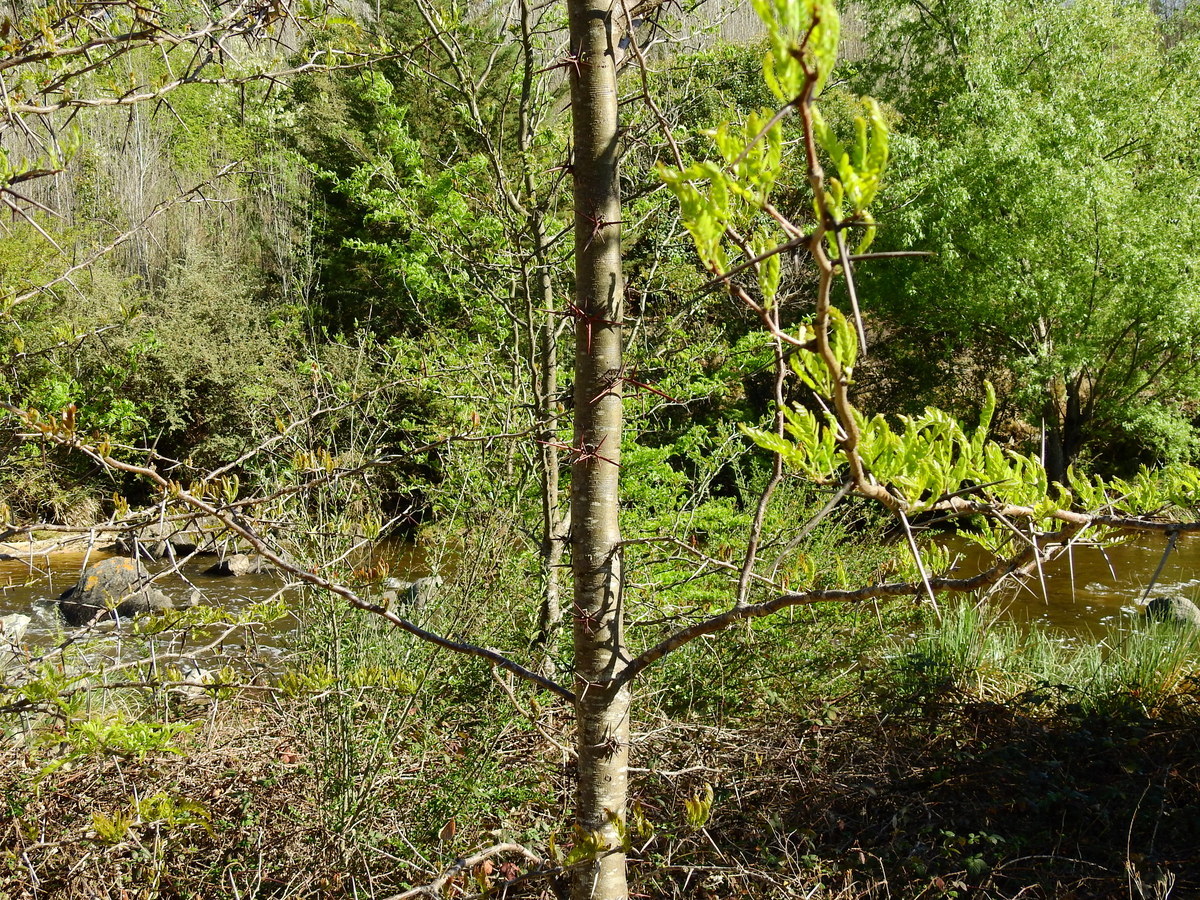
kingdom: Plantae
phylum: Tracheophyta
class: Magnoliopsida
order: Fabales
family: Fabaceae
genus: Gleditsia
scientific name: Gleditsia triacanthos
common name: Common honeylocust
